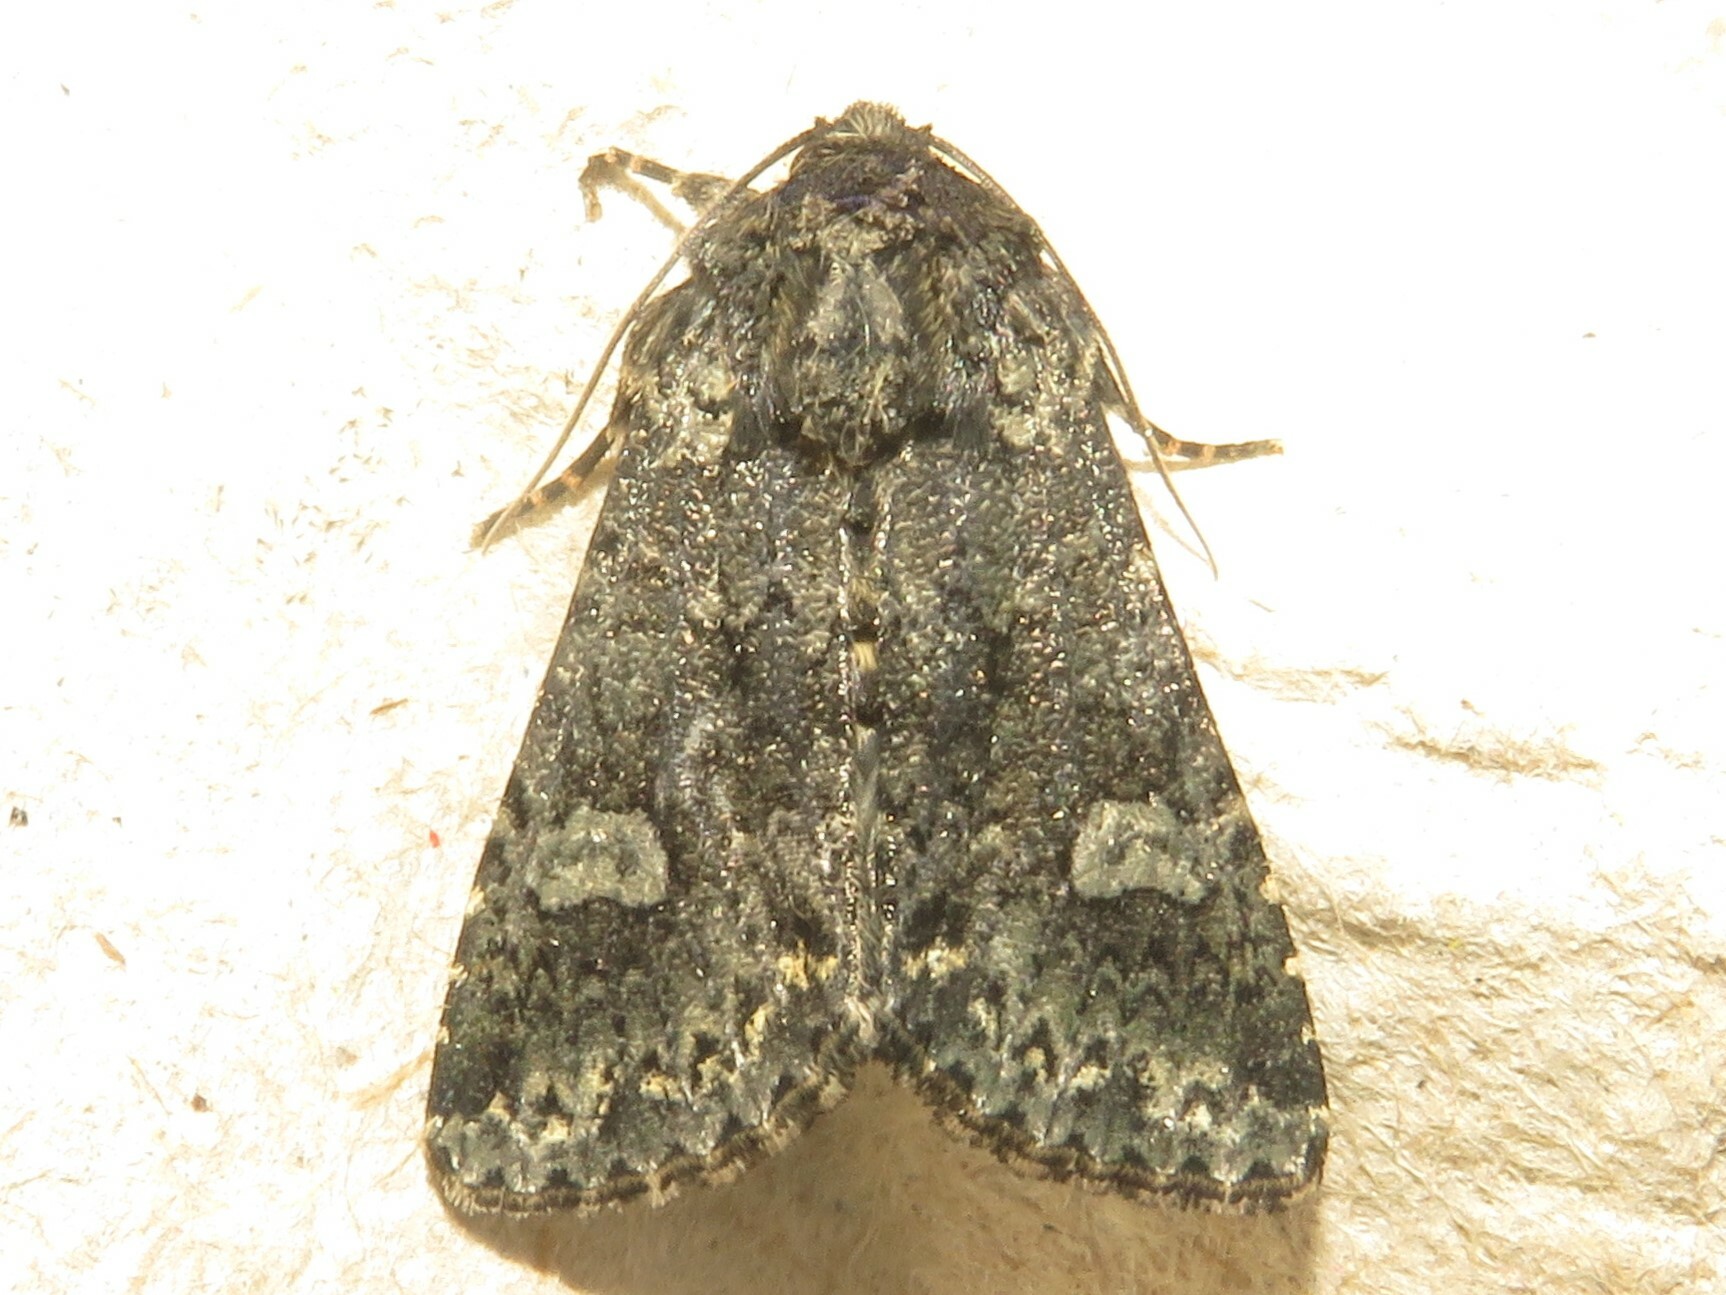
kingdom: Animalia
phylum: Arthropoda
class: Insecta
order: Lepidoptera
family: Noctuidae
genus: Melanchra
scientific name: Melanchra adjuncta
